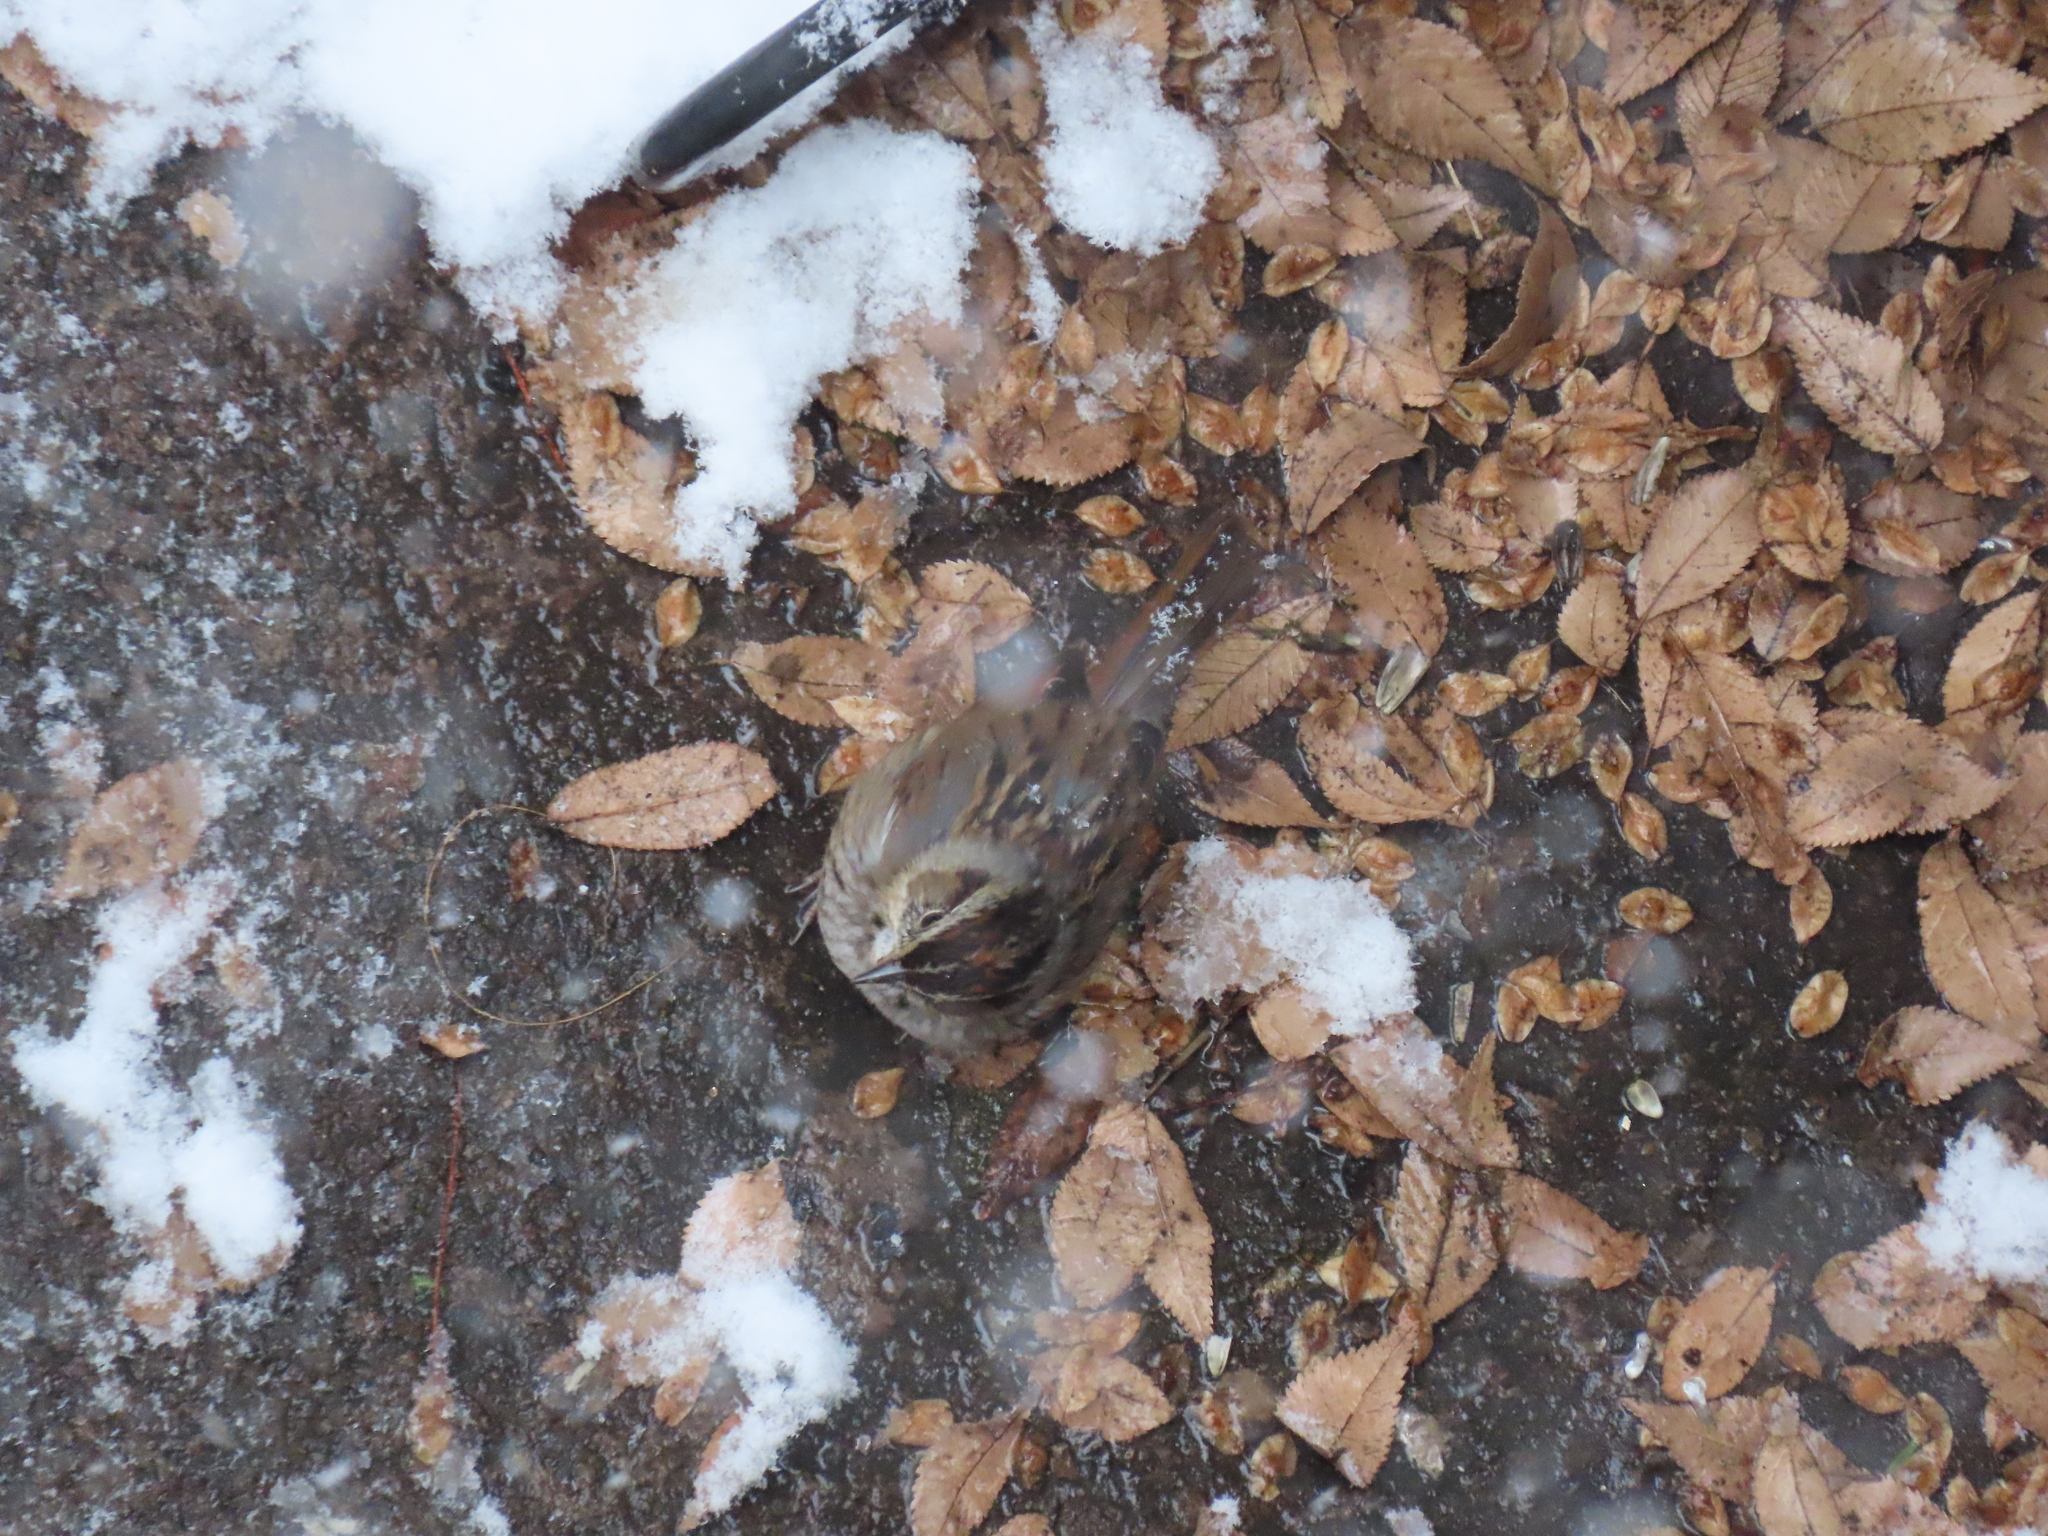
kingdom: Animalia
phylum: Chordata
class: Aves
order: Passeriformes
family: Passerellidae
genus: Melospiza
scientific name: Melospiza georgiana
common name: Swamp sparrow
